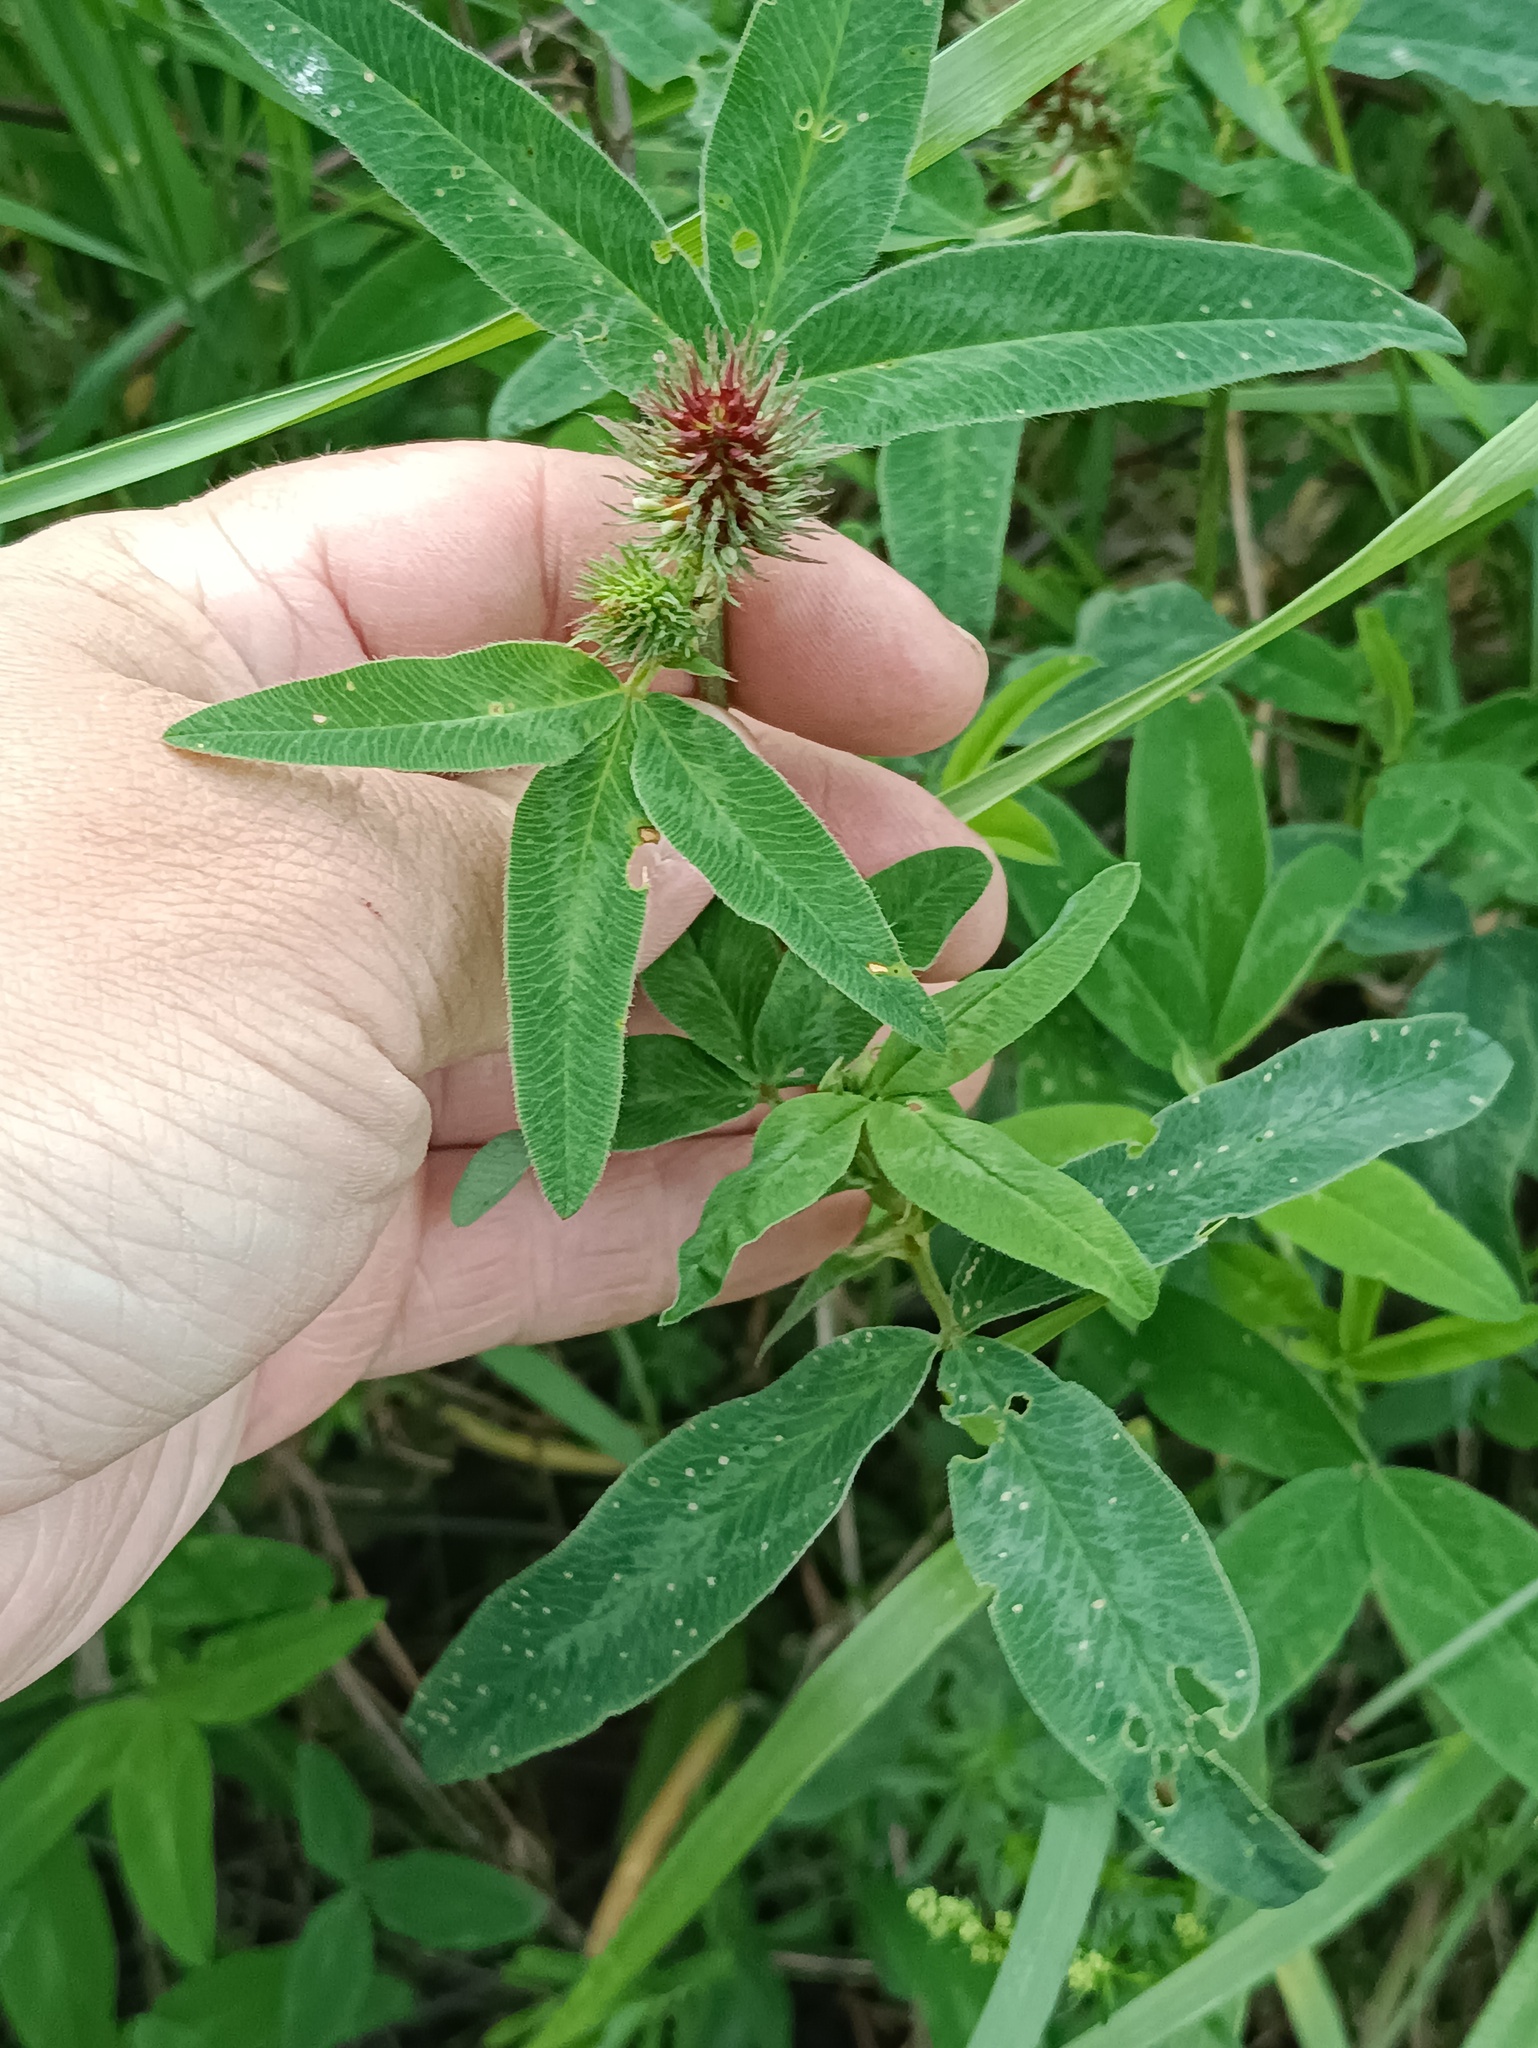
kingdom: Plantae
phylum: Tracheophyta
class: Magnoliopsida
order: Fabales
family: Fabaceae
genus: Trifolium
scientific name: Trifolium medium
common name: Zigzag clover
